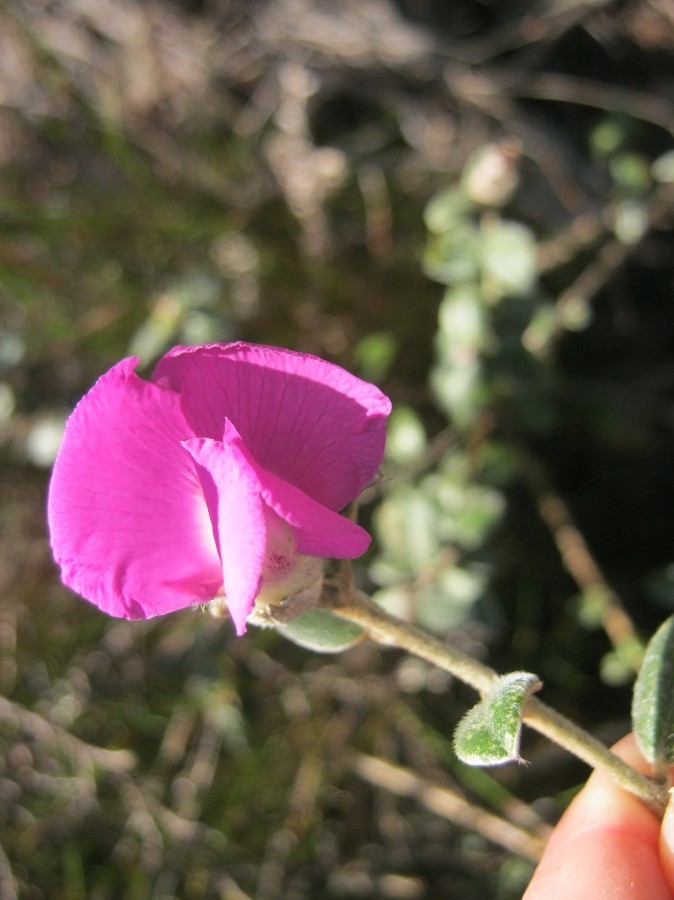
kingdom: Plantae
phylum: Tracheophyta
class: Magnoliopsida
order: Fabales
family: Fabaceae
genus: Podalyria
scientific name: Podalyria burchellii
